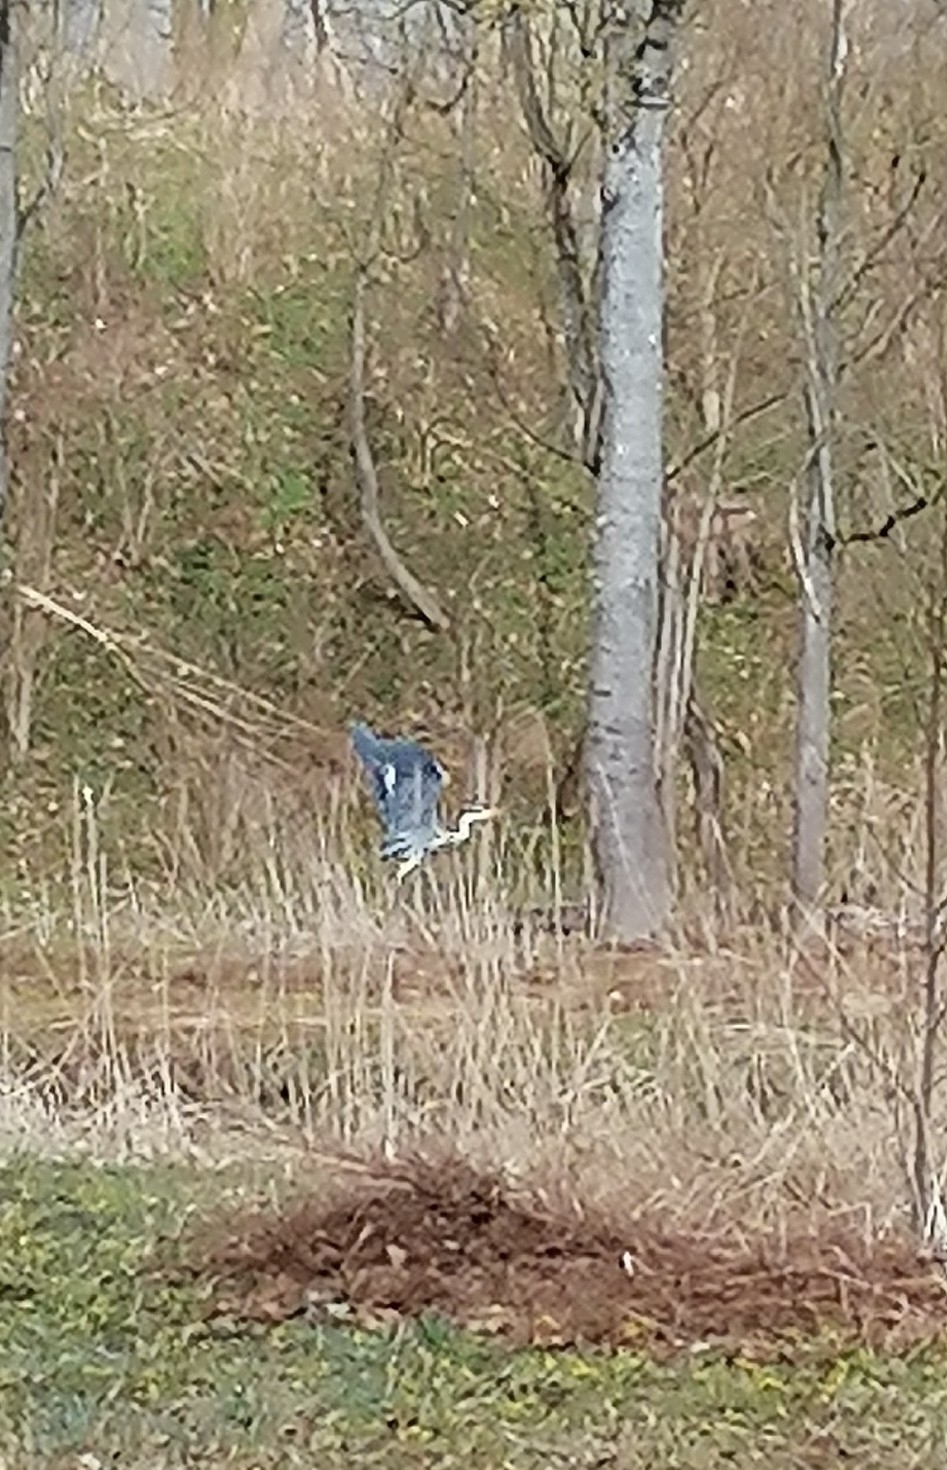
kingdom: Animalia
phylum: Chordata
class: Aves
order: Pelecaniformes
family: Ardeidae
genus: Ardea
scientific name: Ardea cinerea
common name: Grey heron
